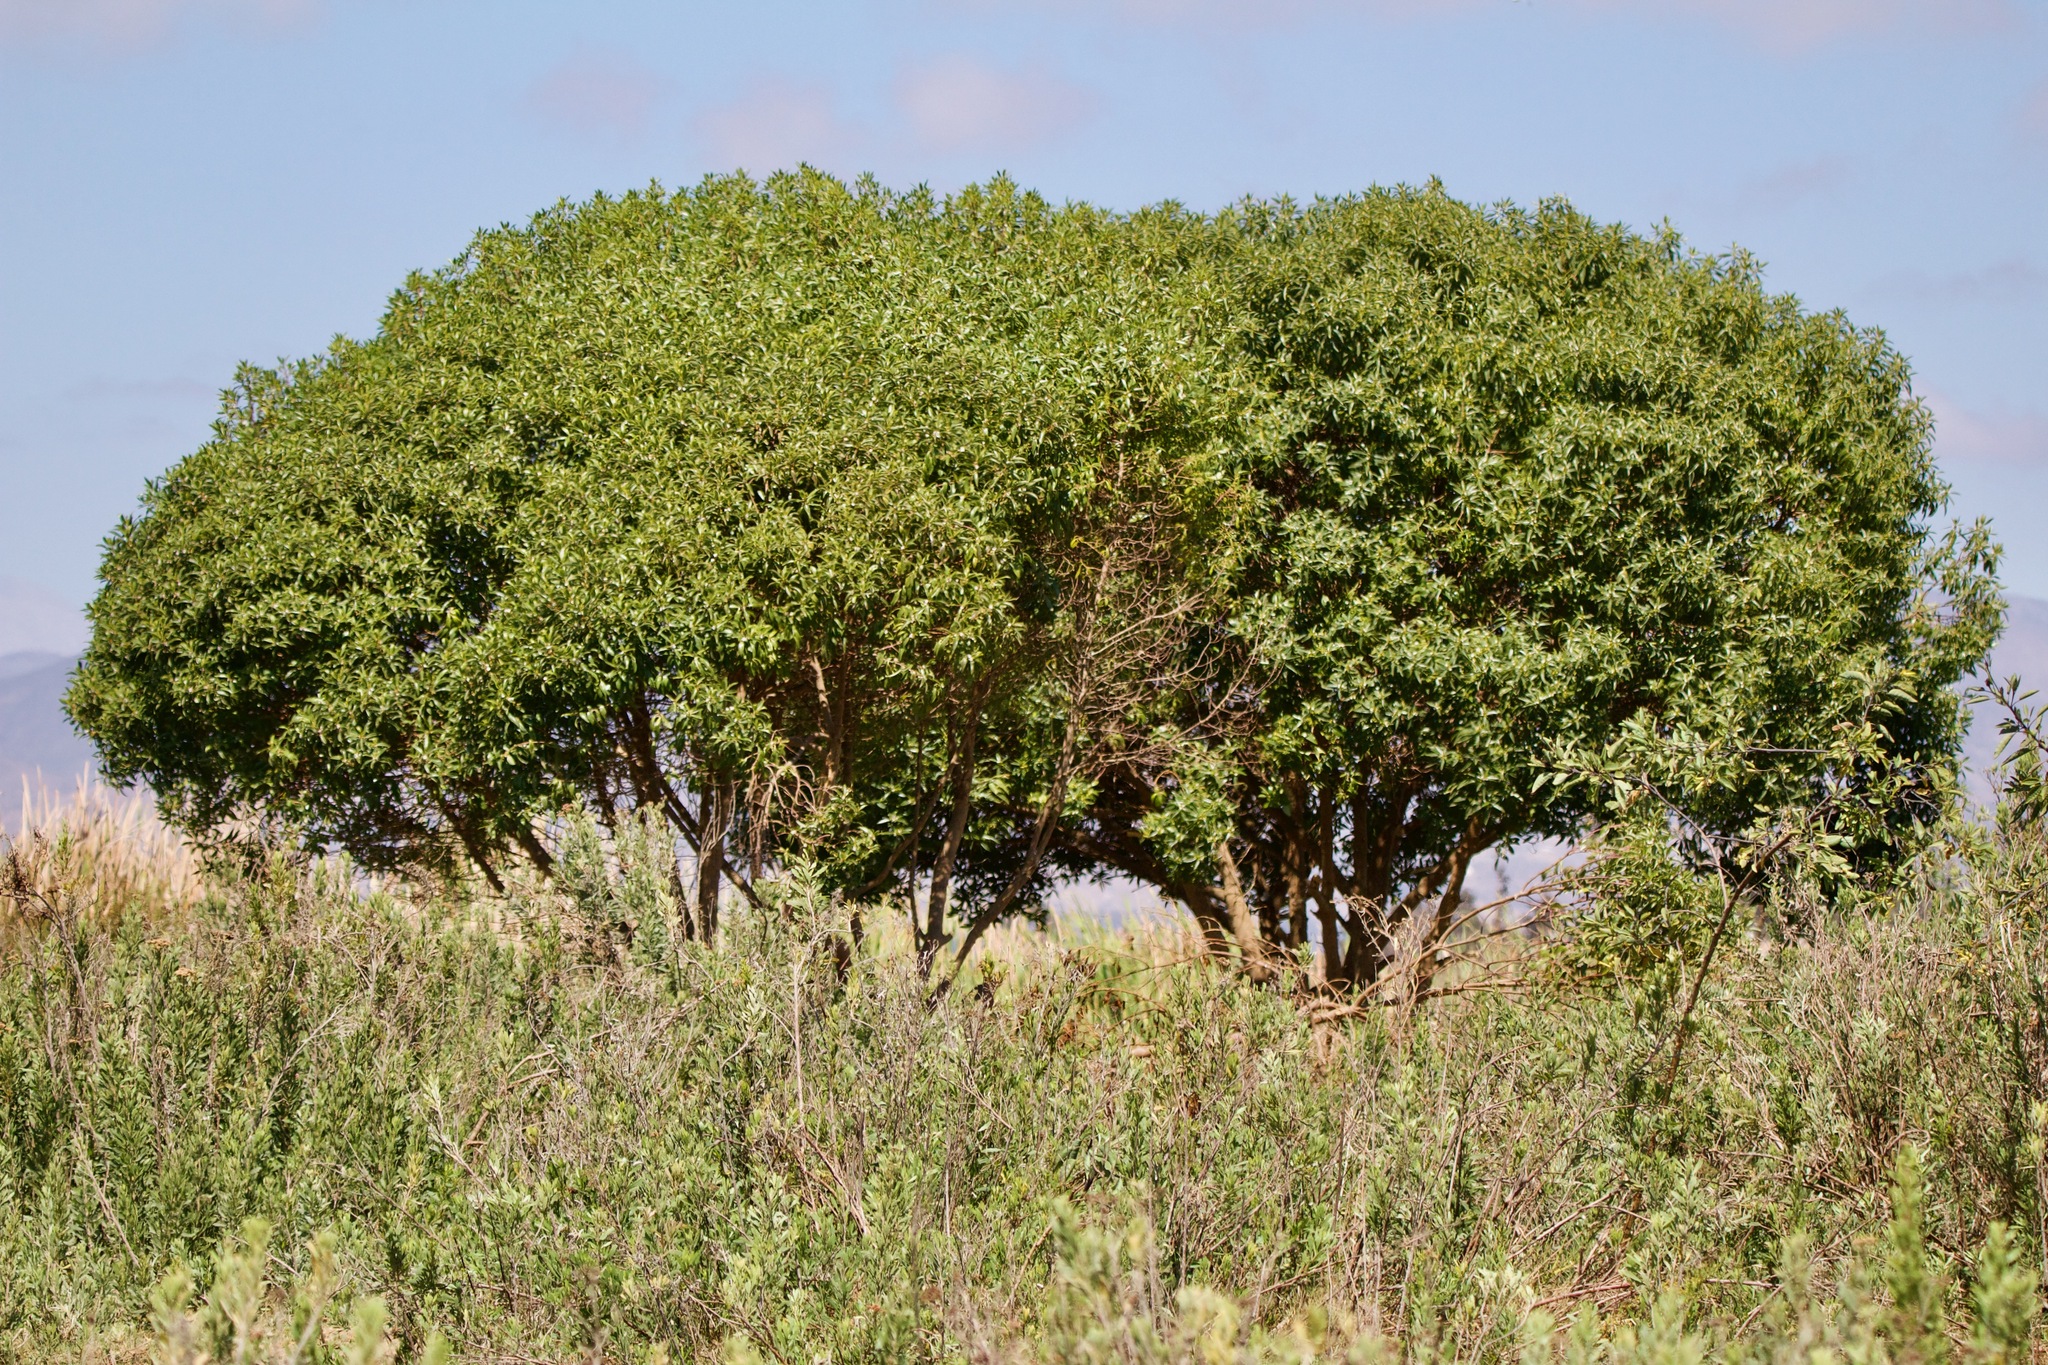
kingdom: Plantae
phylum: Tracheophyta
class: Magnoliopsida
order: Lamiales
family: Scrophulariaceae
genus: Myoporum
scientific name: Myoporum laetum
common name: Ngaio tree
